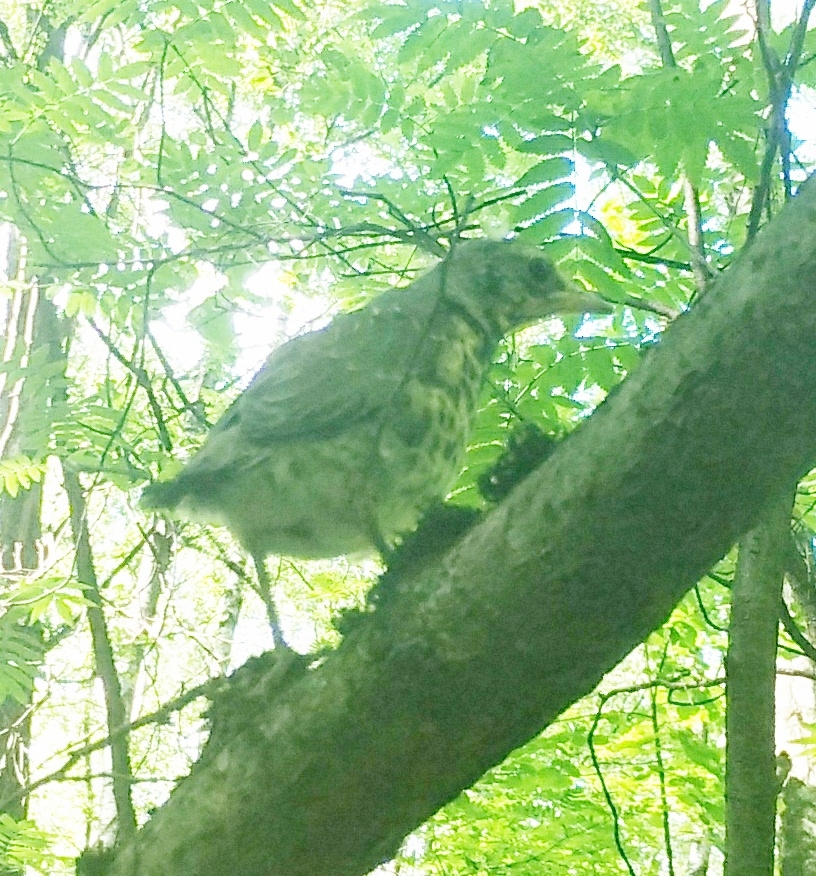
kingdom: Animalia
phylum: Chordata
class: Aves
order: Passeriformes
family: Turdidae
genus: Turdus
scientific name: Turdus pilaris
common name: Fieldfare
